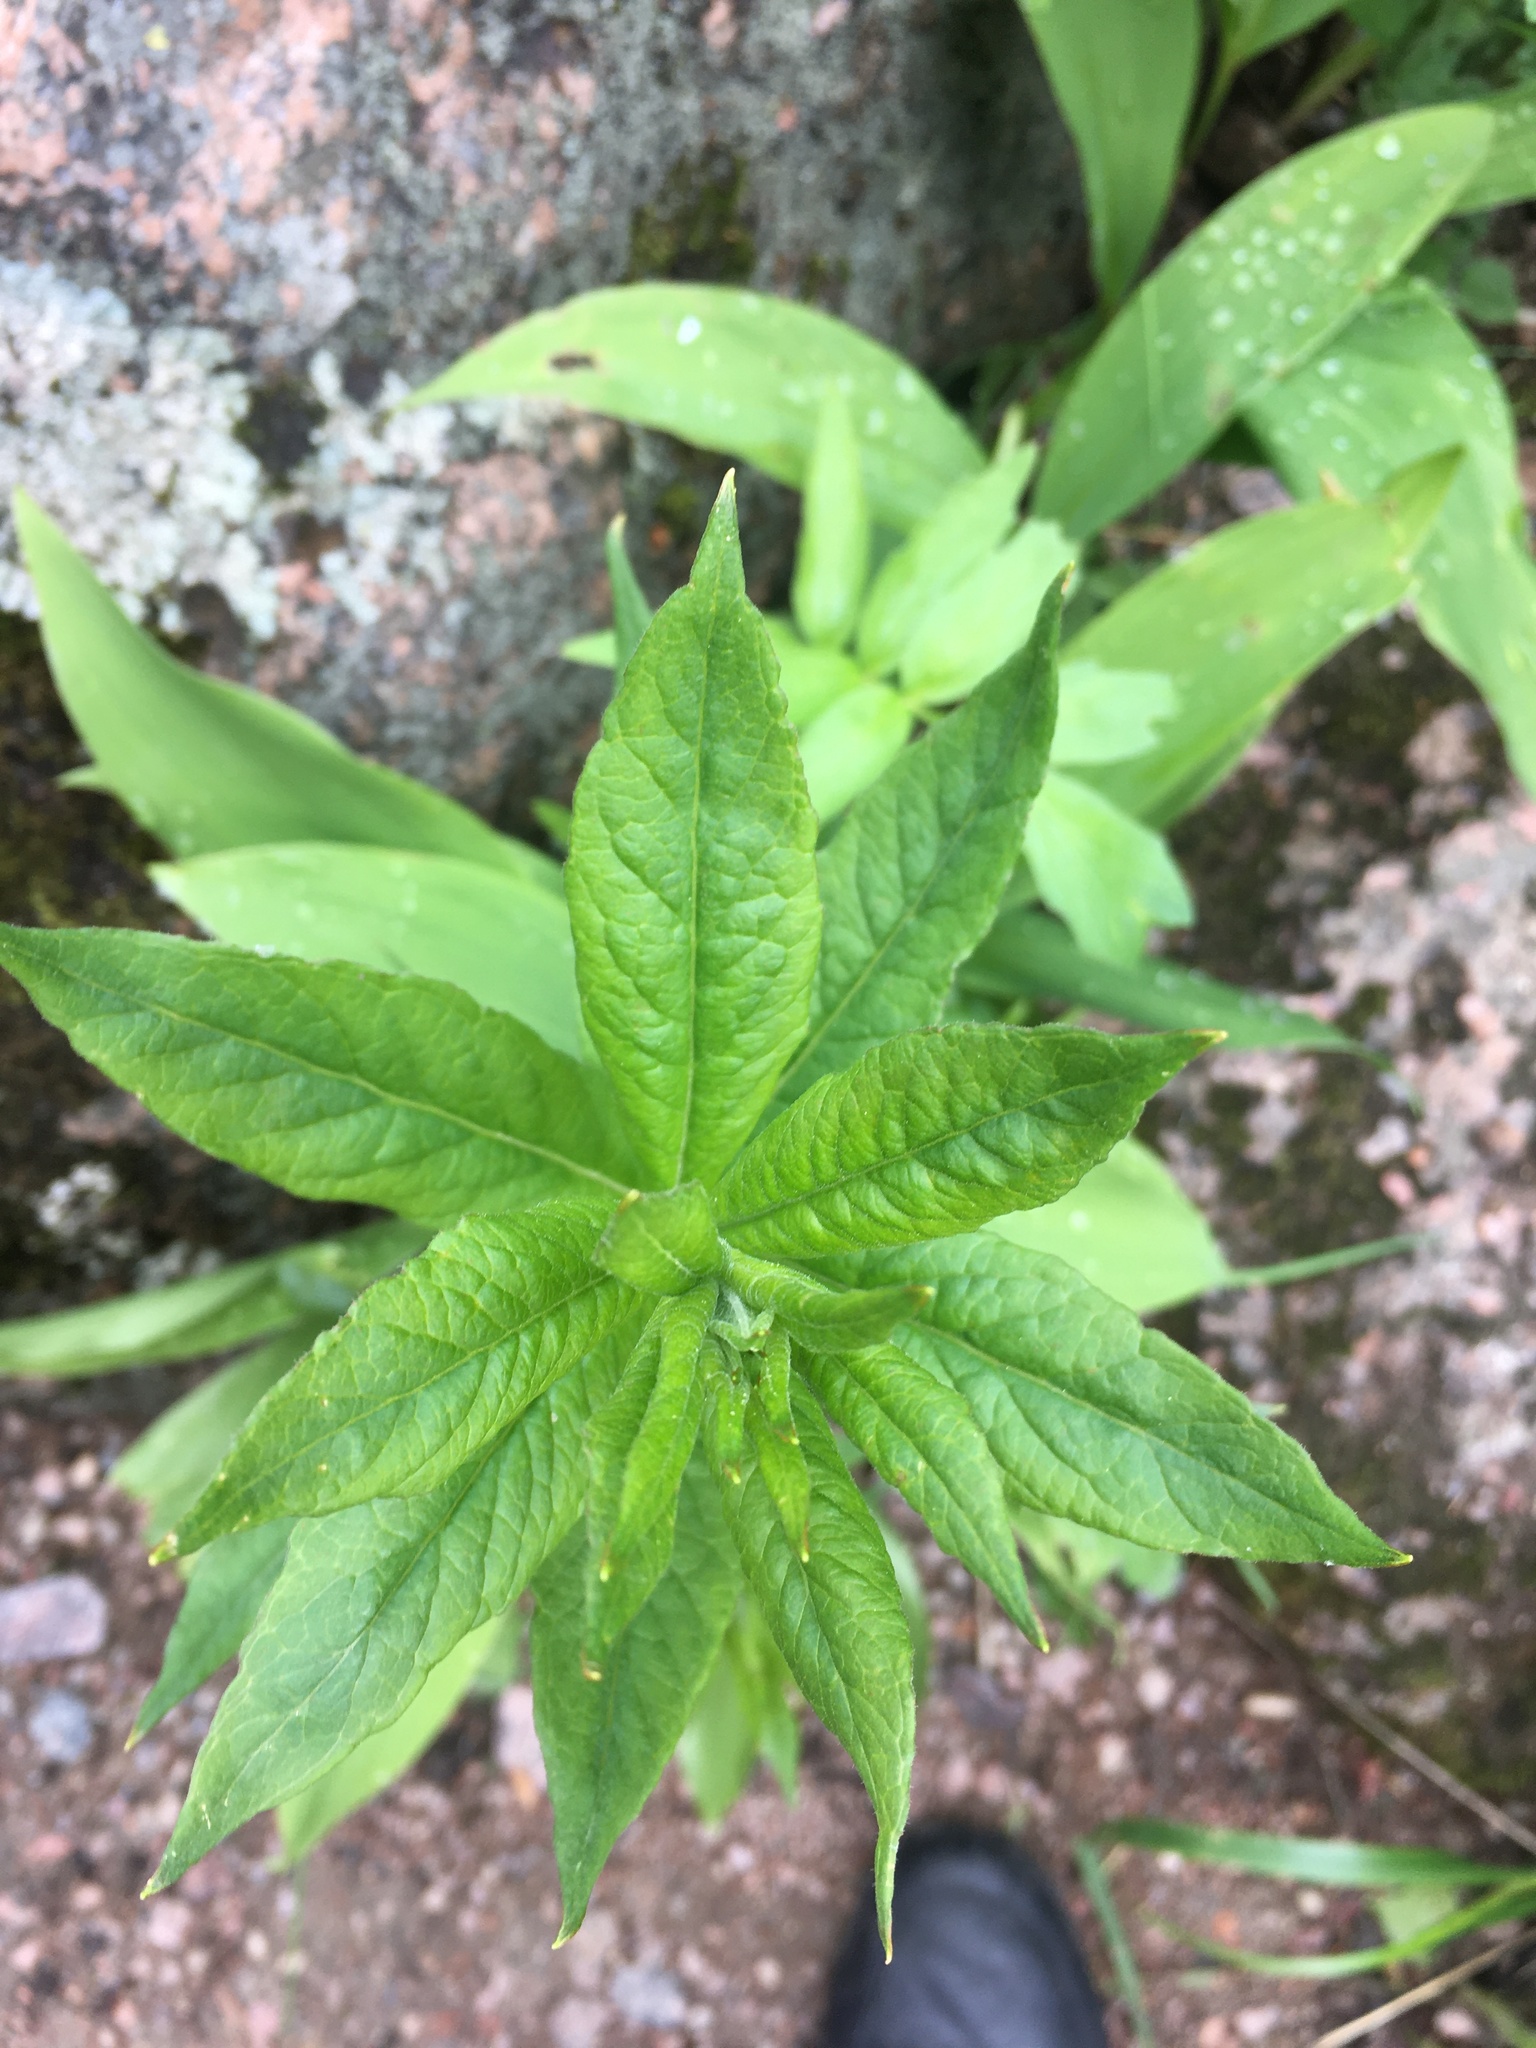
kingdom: Plantae
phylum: Tracheophyta
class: Magnoliopsida
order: Ericales
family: Primulaceae
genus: Lysimachia
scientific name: Lysimachia vulgaris
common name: Yellow loosestrife
